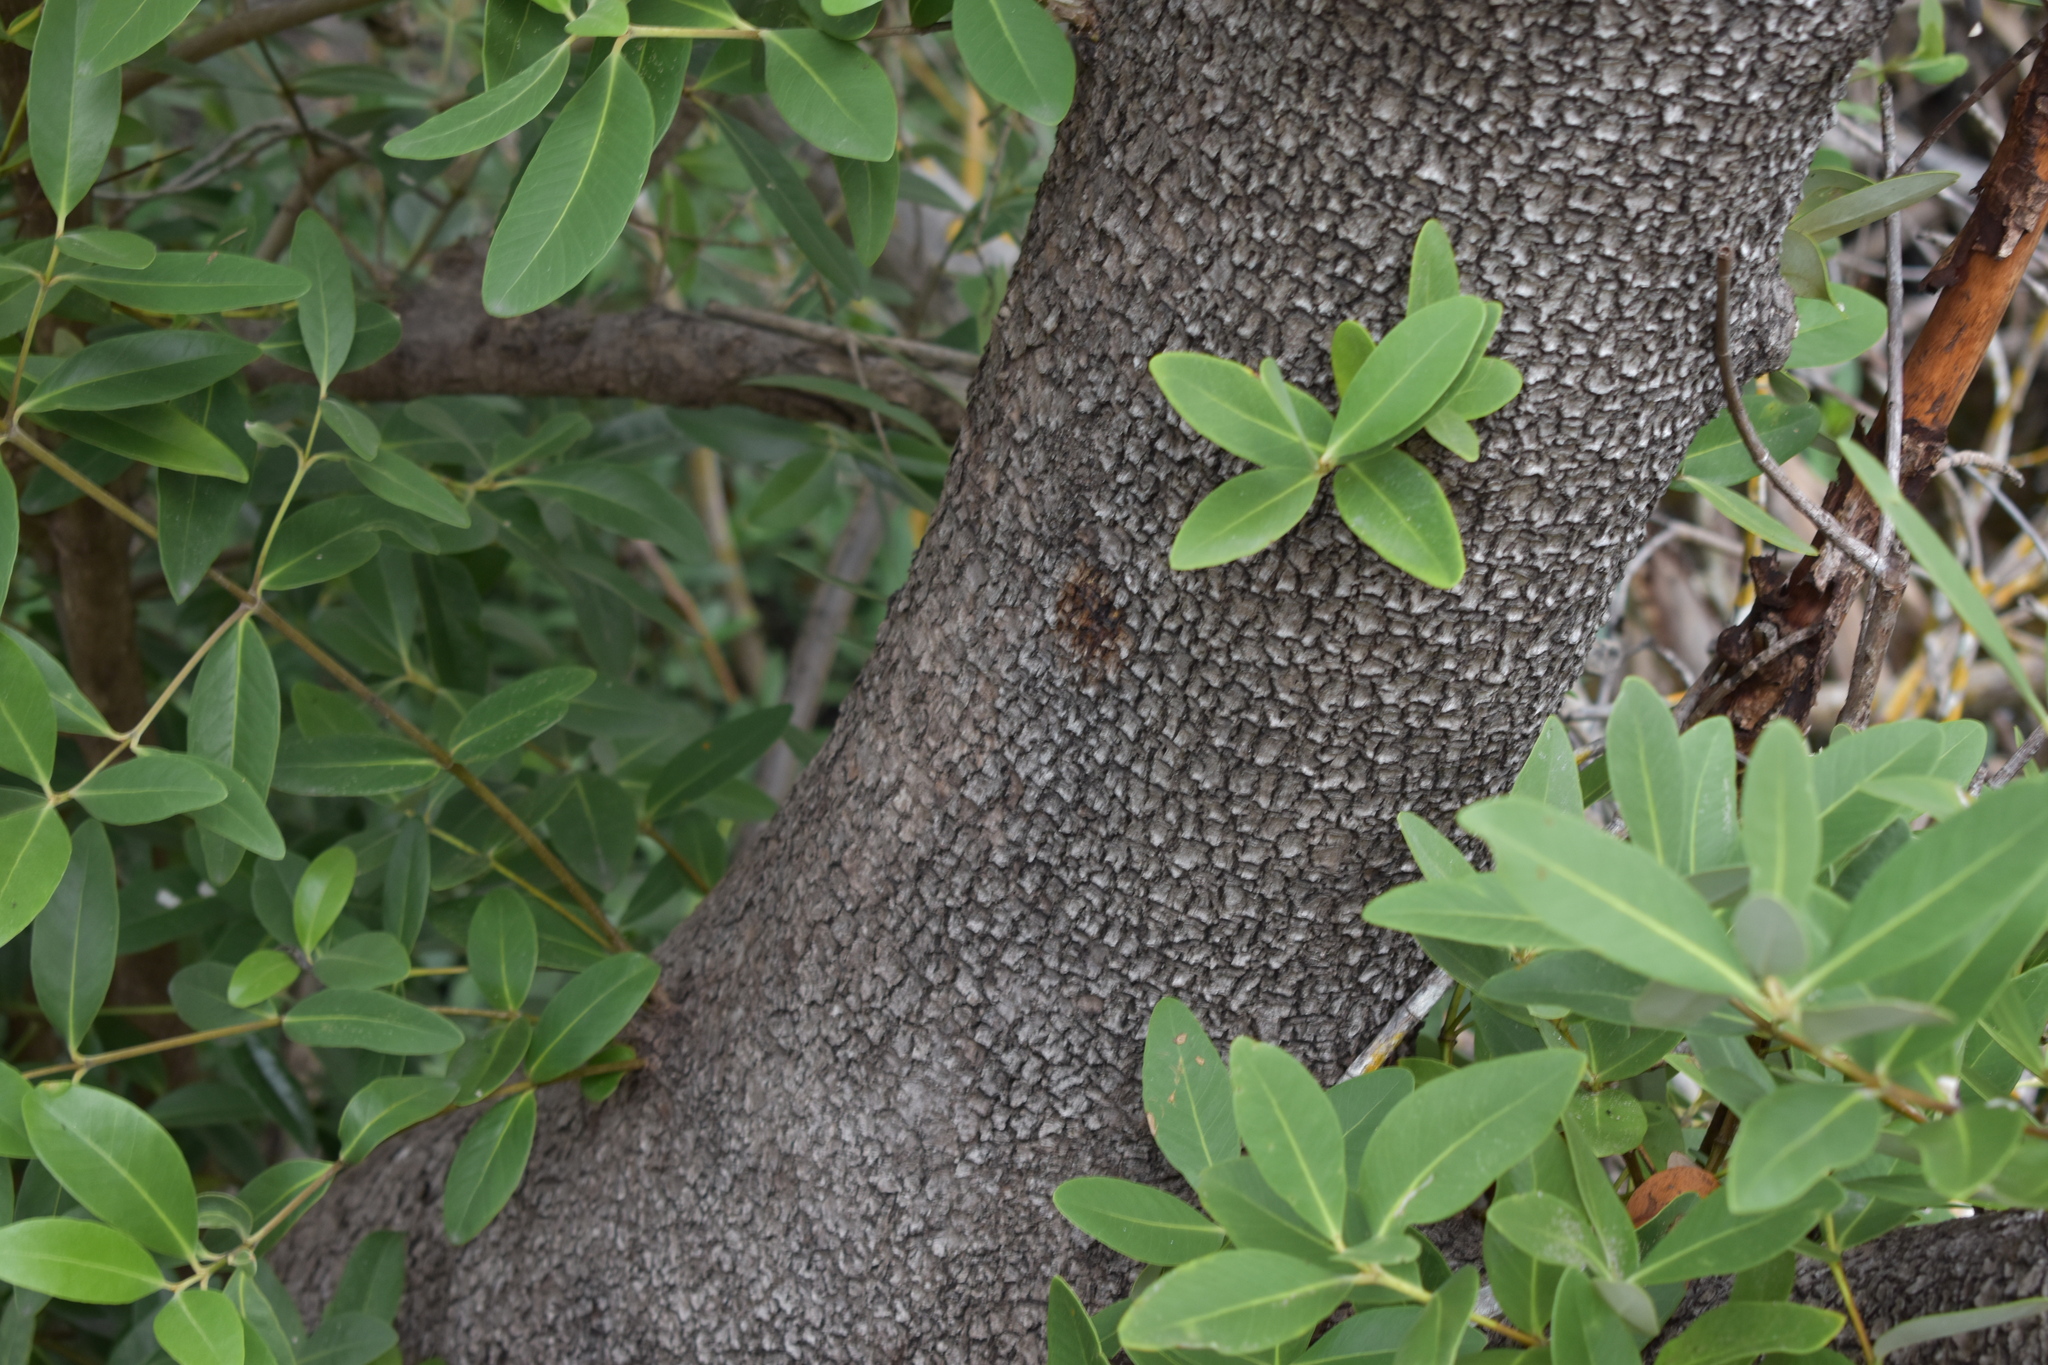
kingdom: Plantae
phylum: Tracheophyta
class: Magnoliopsida
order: Lamiales
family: Acanthaceae
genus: Avicennia
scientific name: Avicennia germinans
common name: Black mangrove
